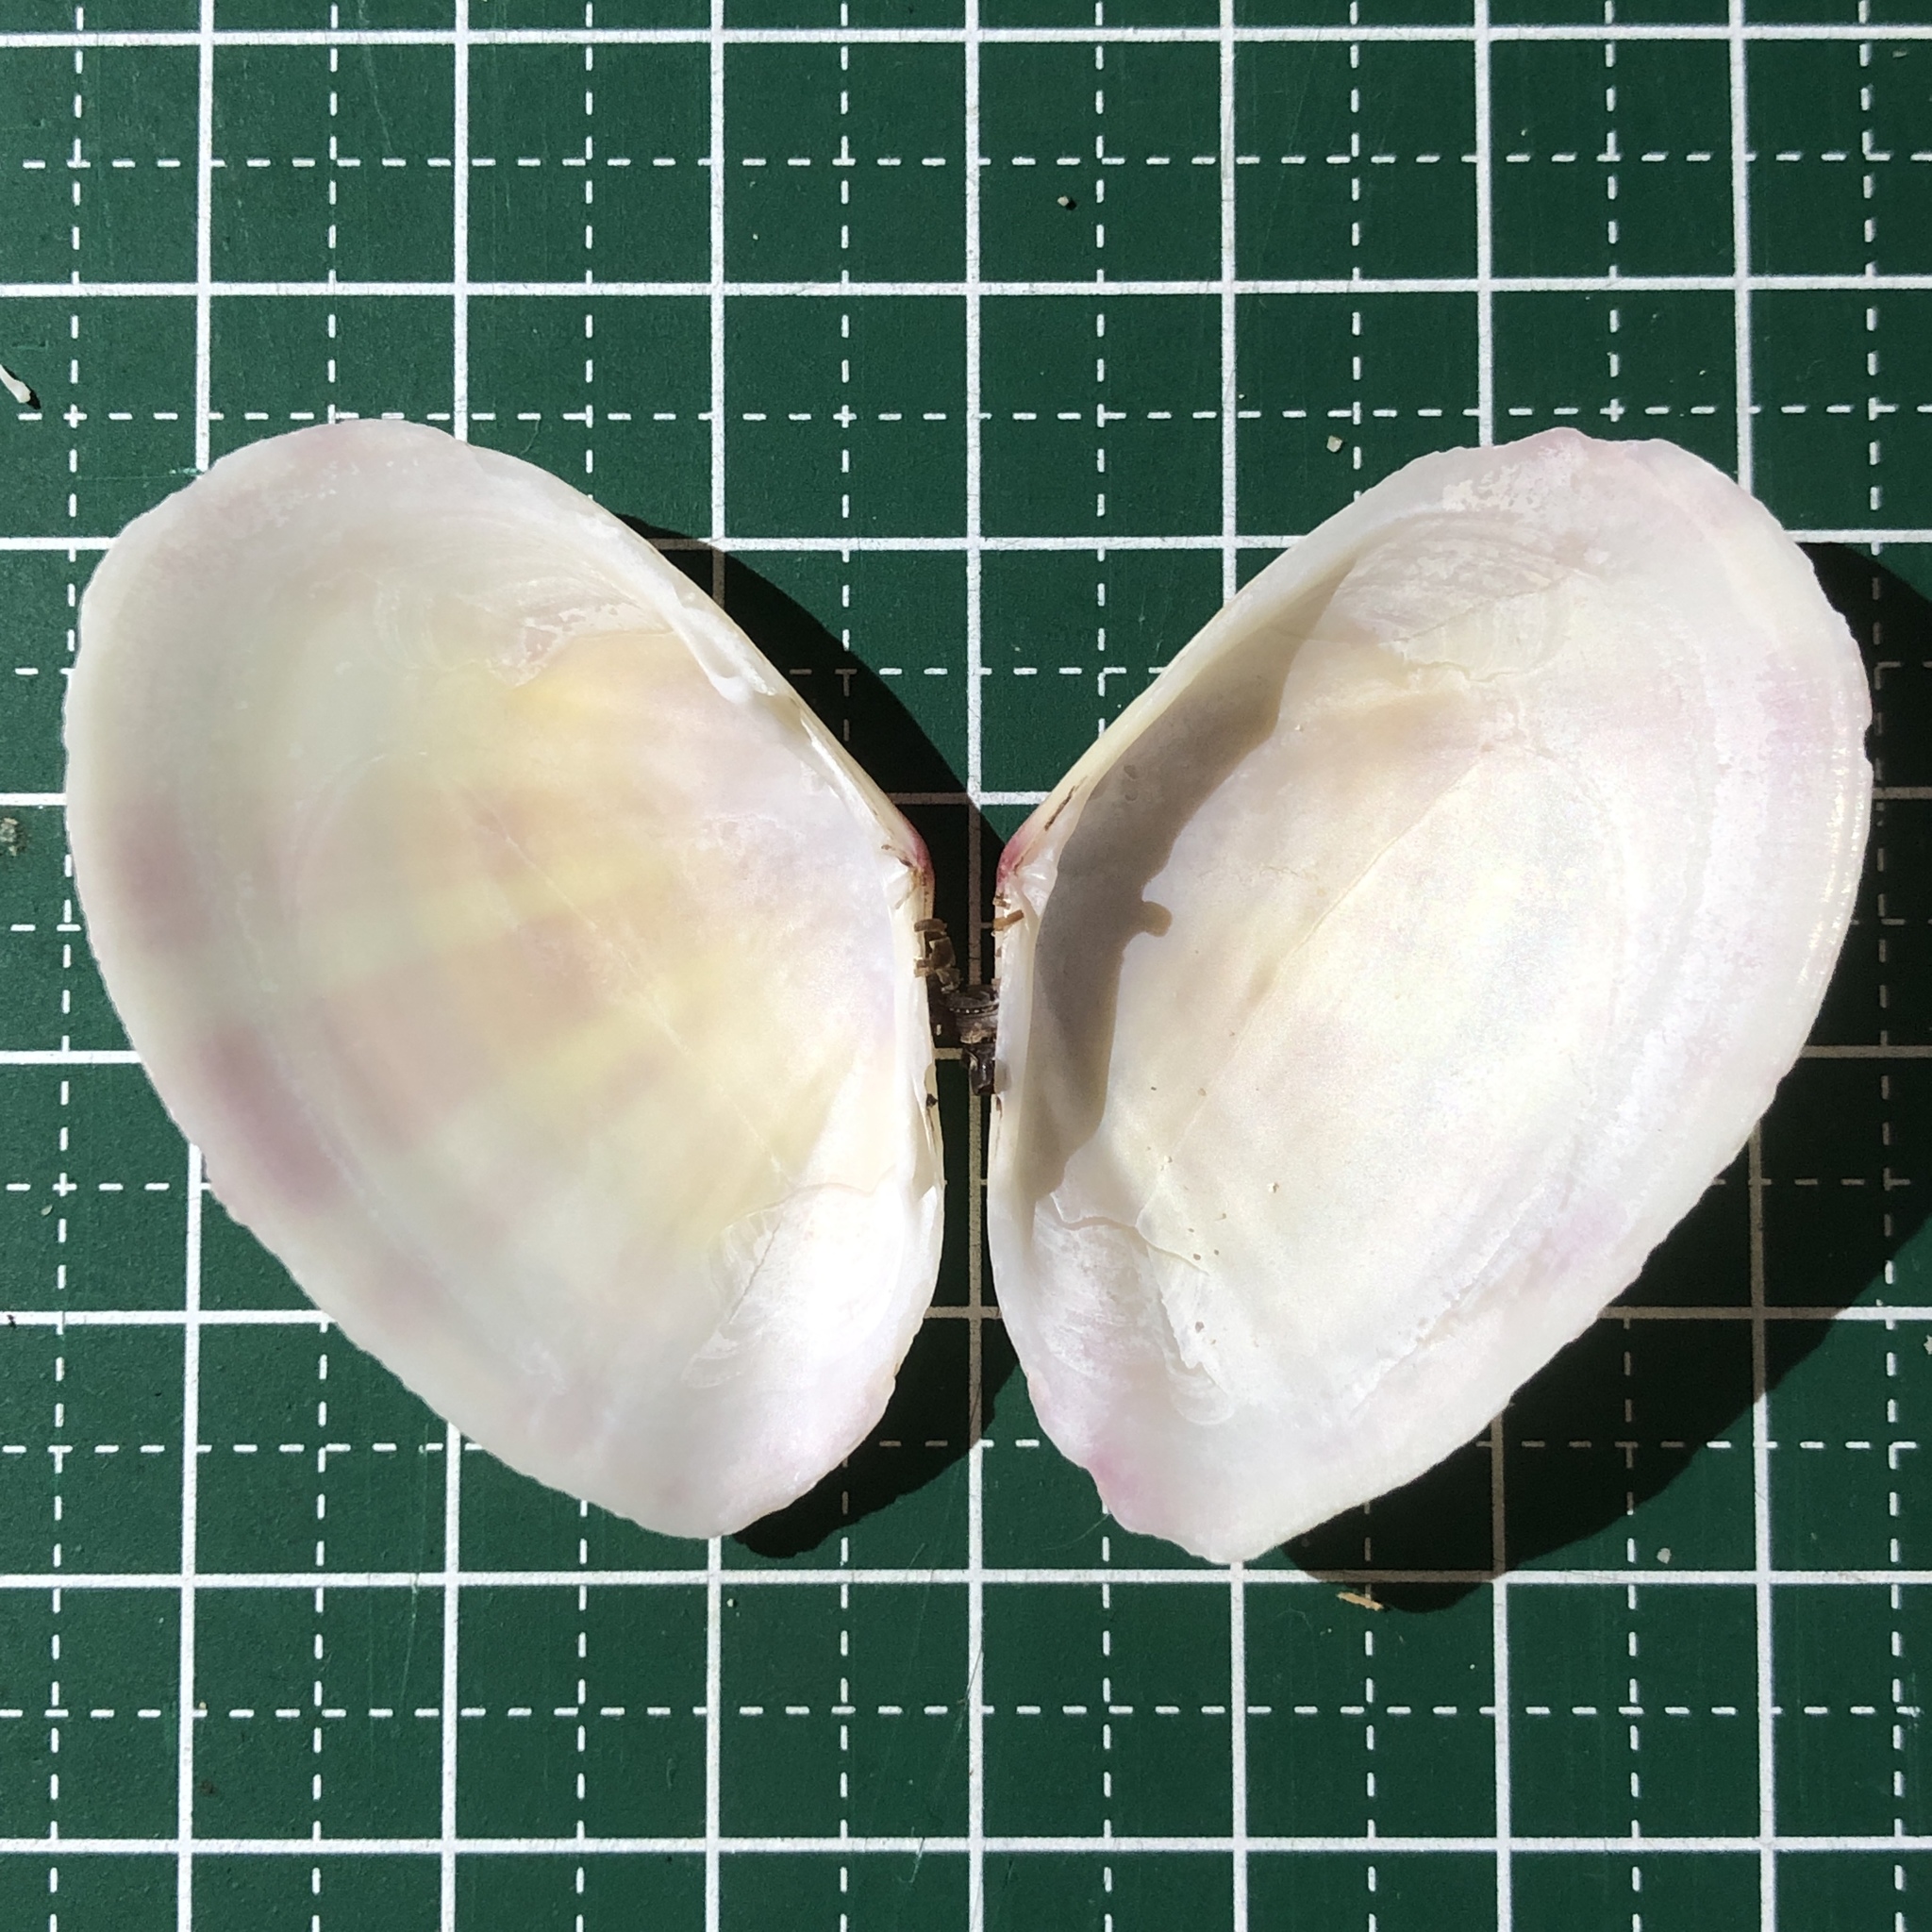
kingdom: Animalia
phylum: Mollusca
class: Bivalvia
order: Cardiida
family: Tellinidae
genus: Tellinella
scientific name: Tellinella virgata
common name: Striped tellin
